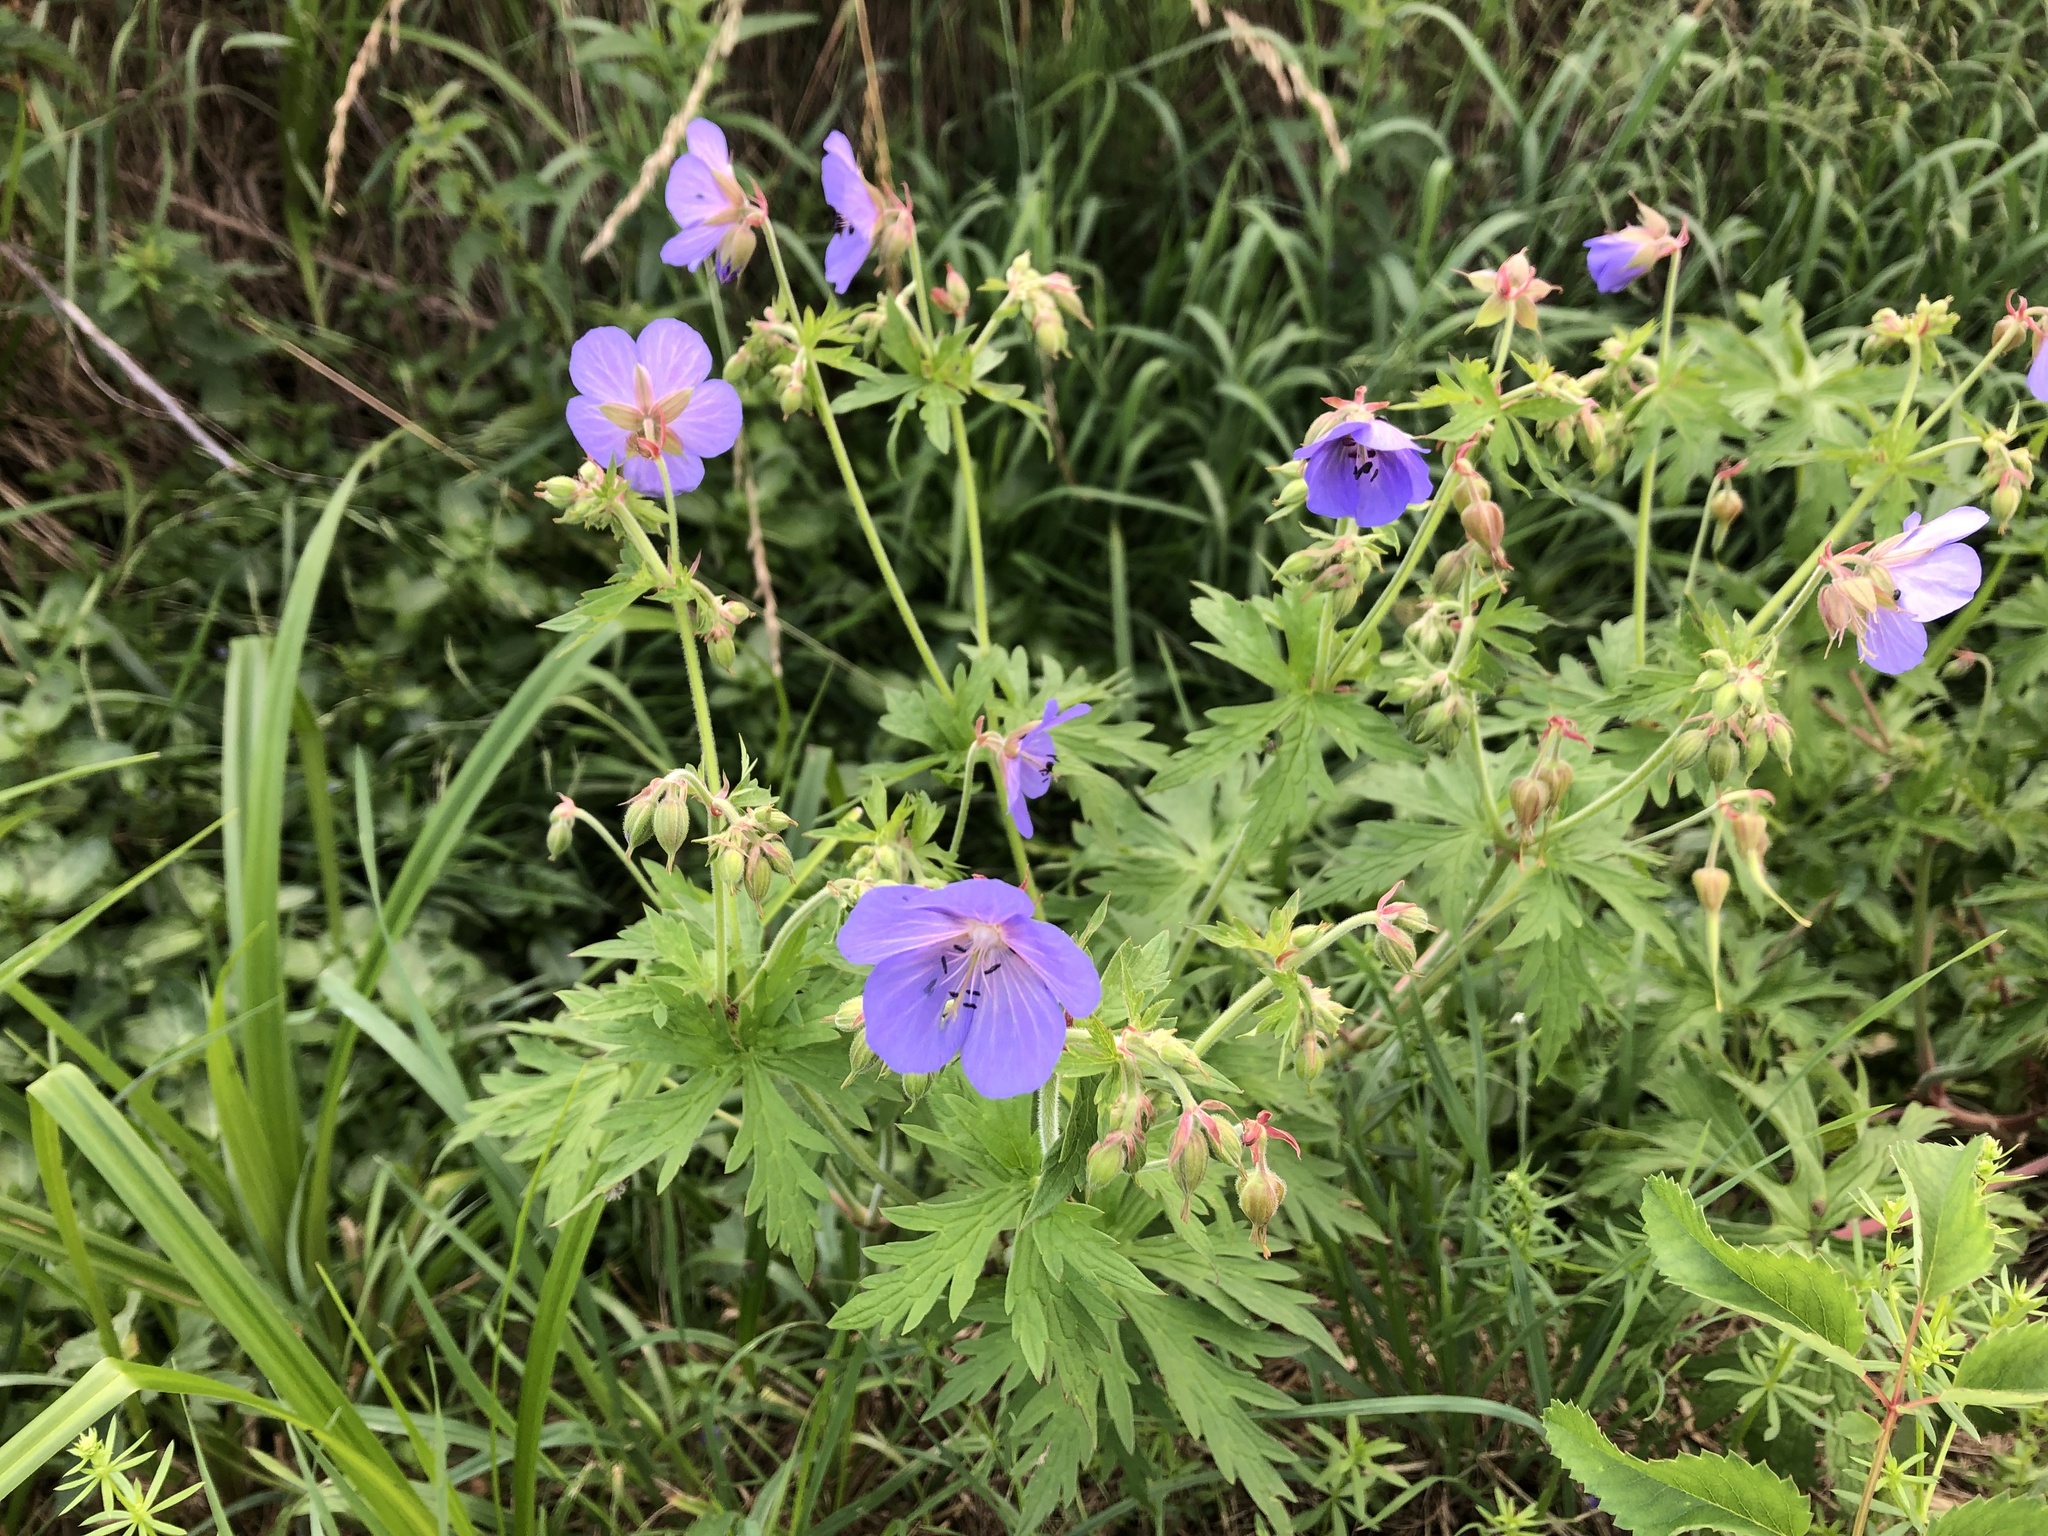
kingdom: Plantae
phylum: Tracheophyta
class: Magnoliopsida
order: Geraniales
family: Geraniaceae
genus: Geranium
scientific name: Geranium pratense
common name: Meadow crane's-bill
